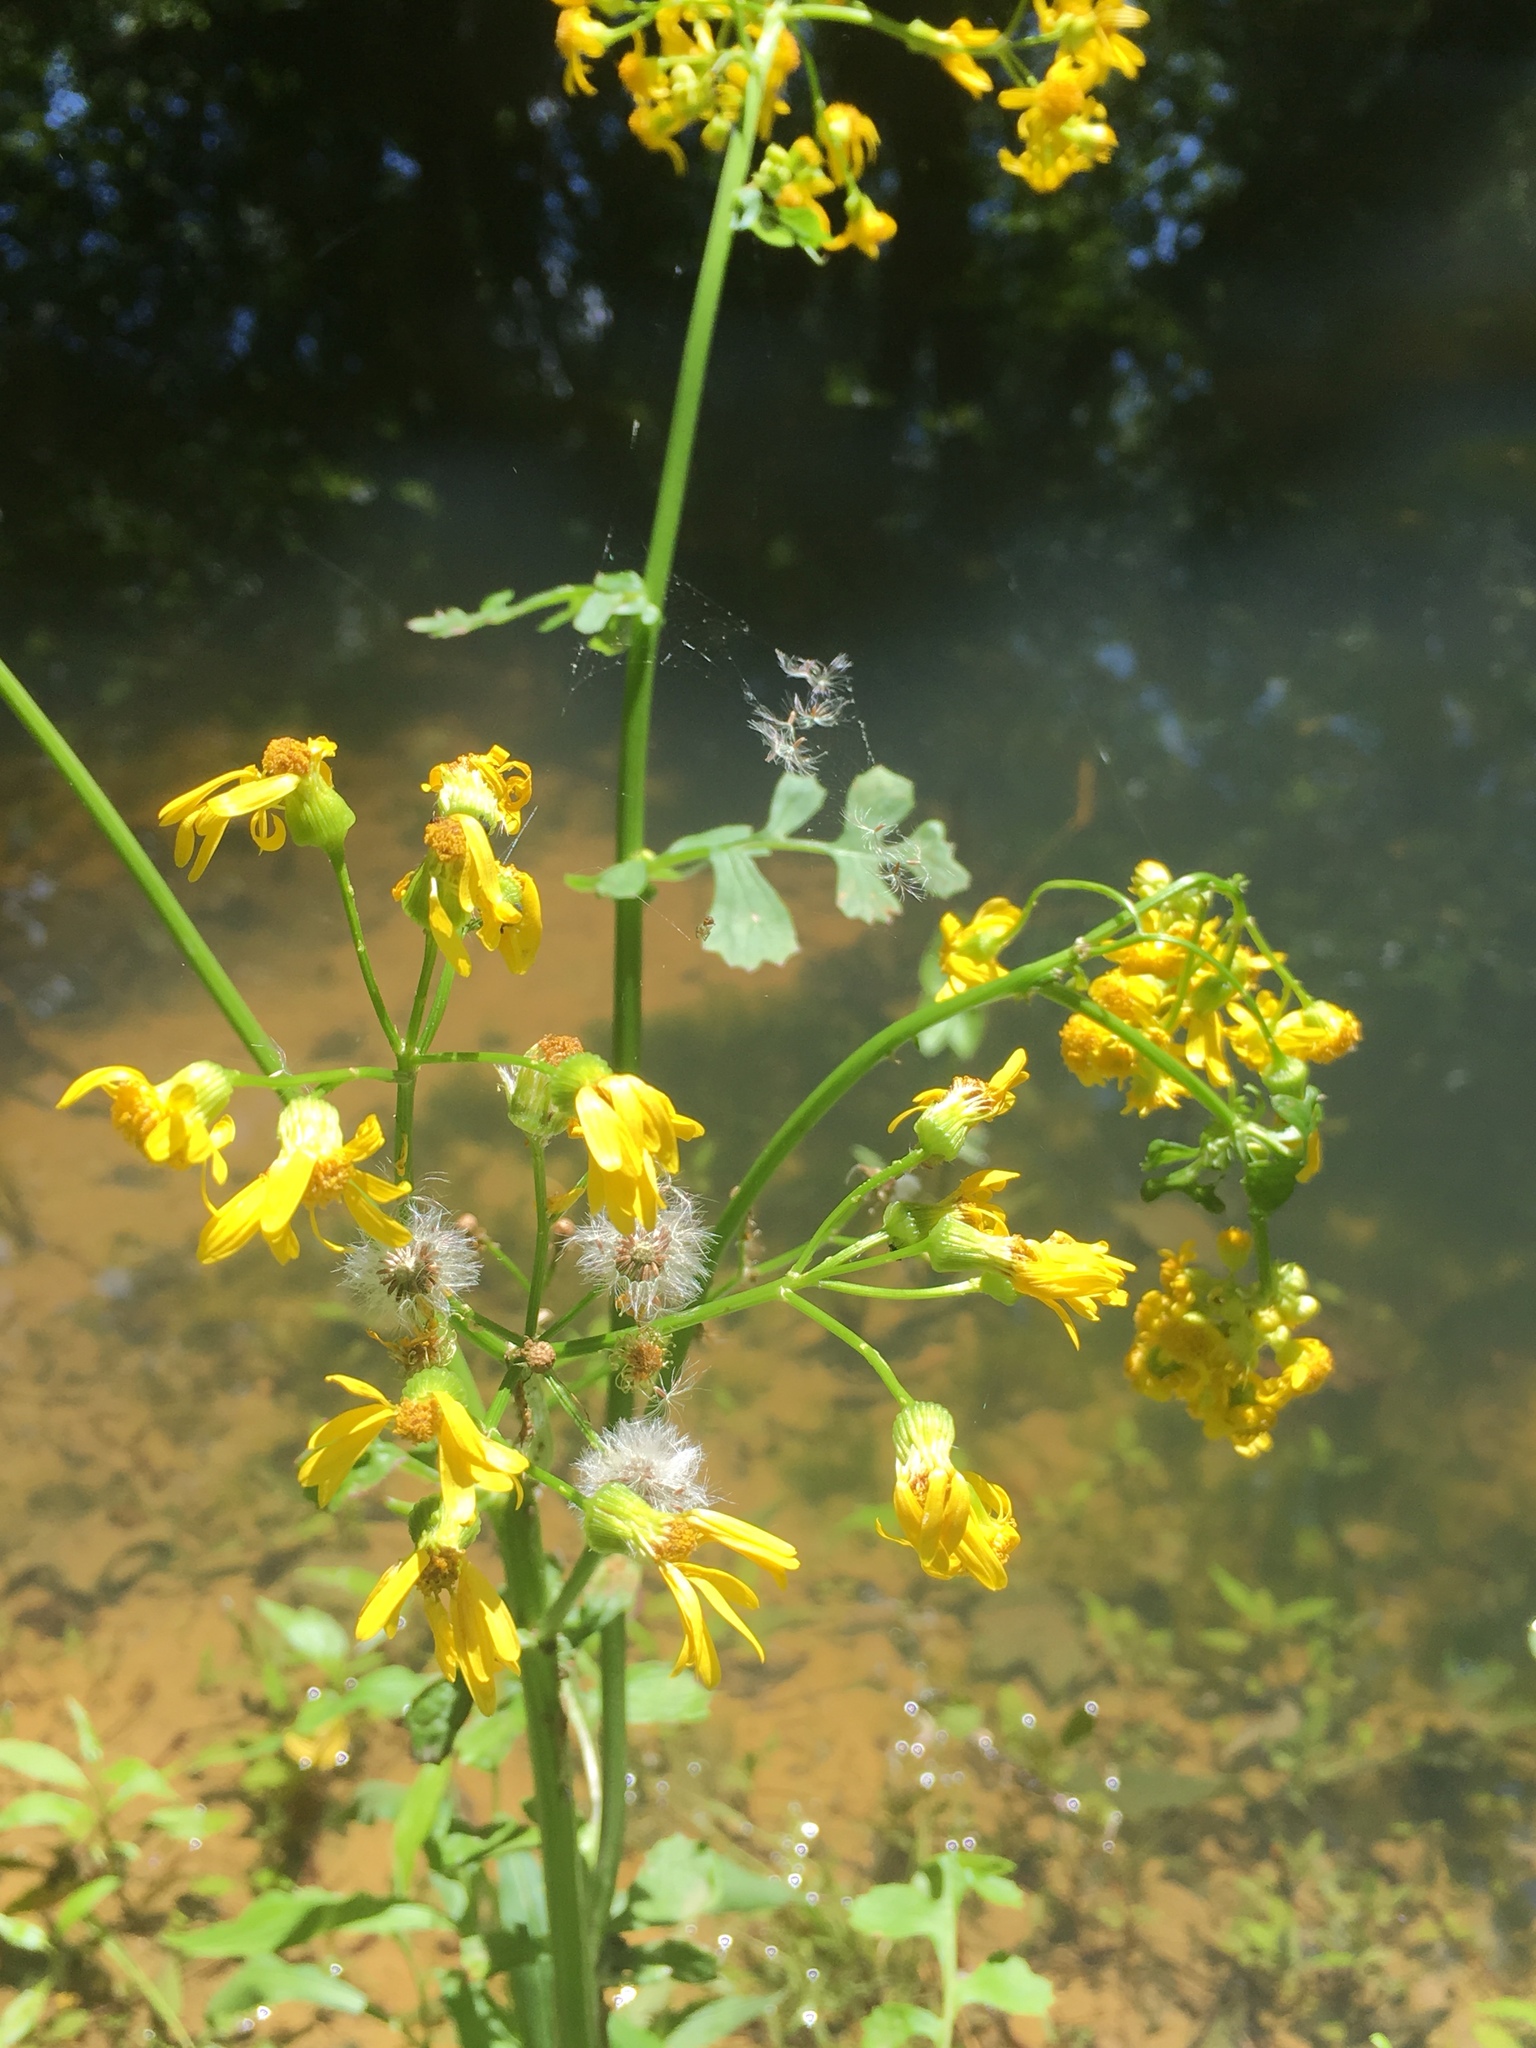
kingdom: Plantae
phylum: Tracheophyta
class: Magnoliopsida
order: Asterales
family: Asteraceae
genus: Packera
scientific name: Packera glabella
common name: Butterweed
